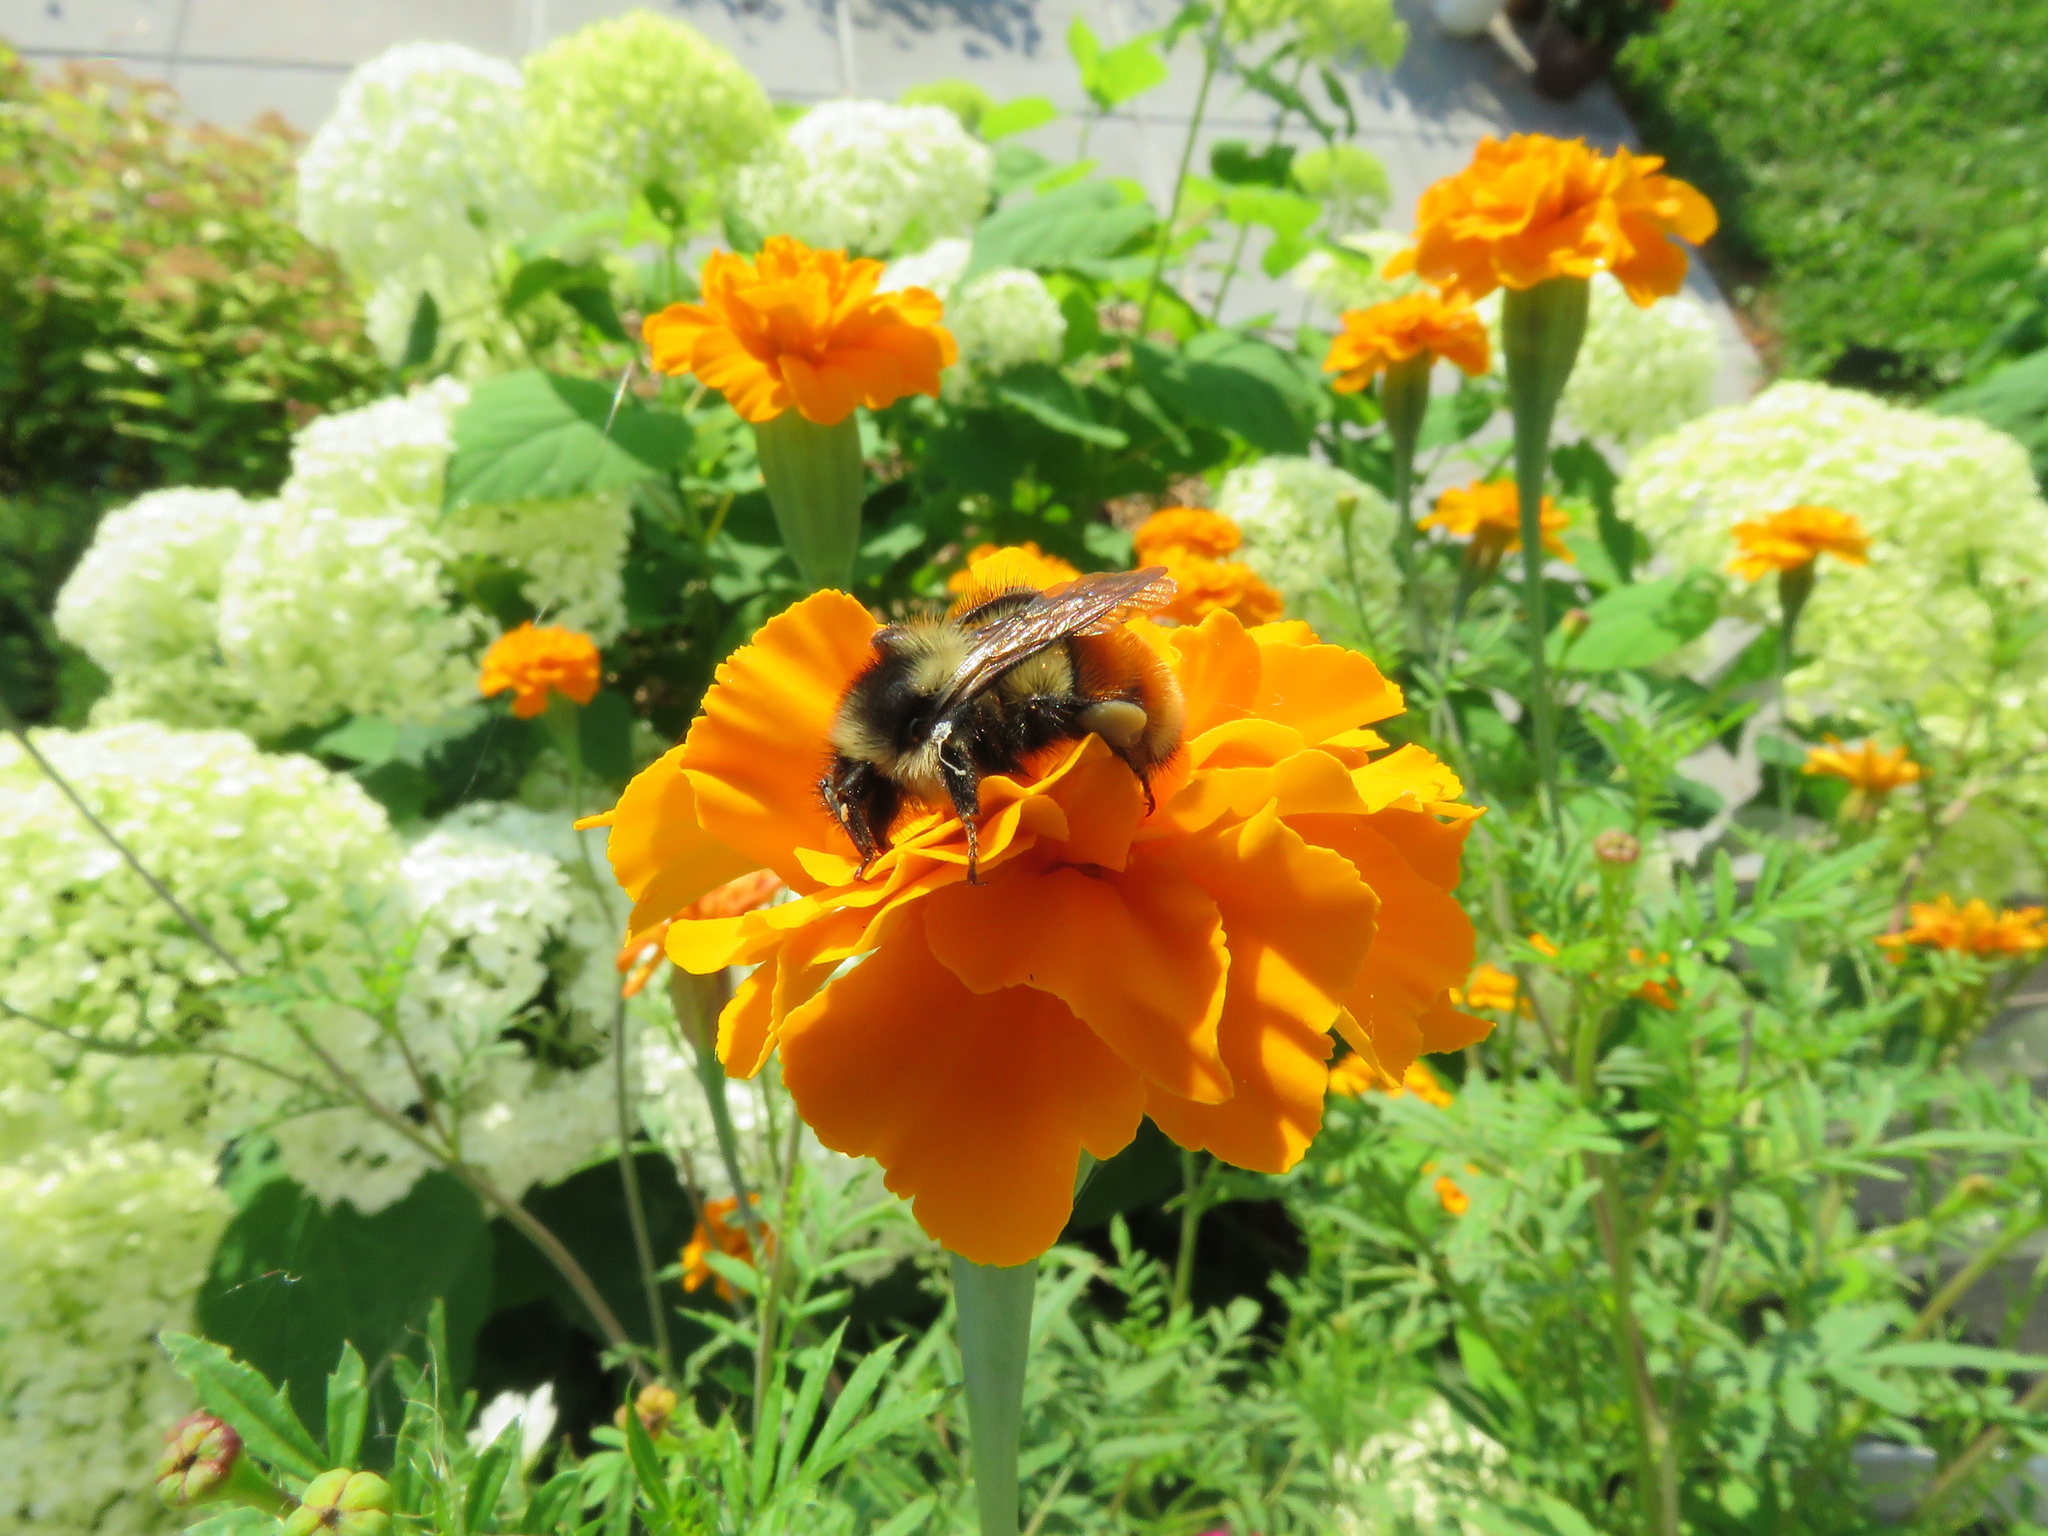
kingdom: Animalia
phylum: Arthropoda
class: Insecta
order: Hymenoptera
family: Apidae
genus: Bombus
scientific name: Bombus ternarius
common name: Tri-colored bumble bee
